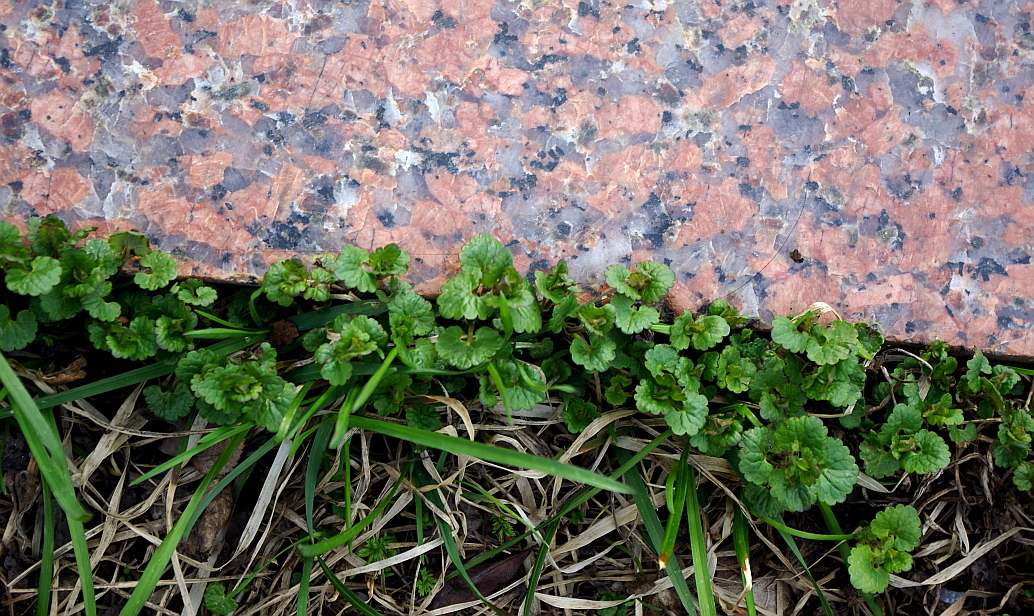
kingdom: Plantae
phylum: Tracheophyta
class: Magnoliopsida
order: Lamiales
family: Lamiaceae
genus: Glechoma
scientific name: Glechoma hederacea
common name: Ground ivy
